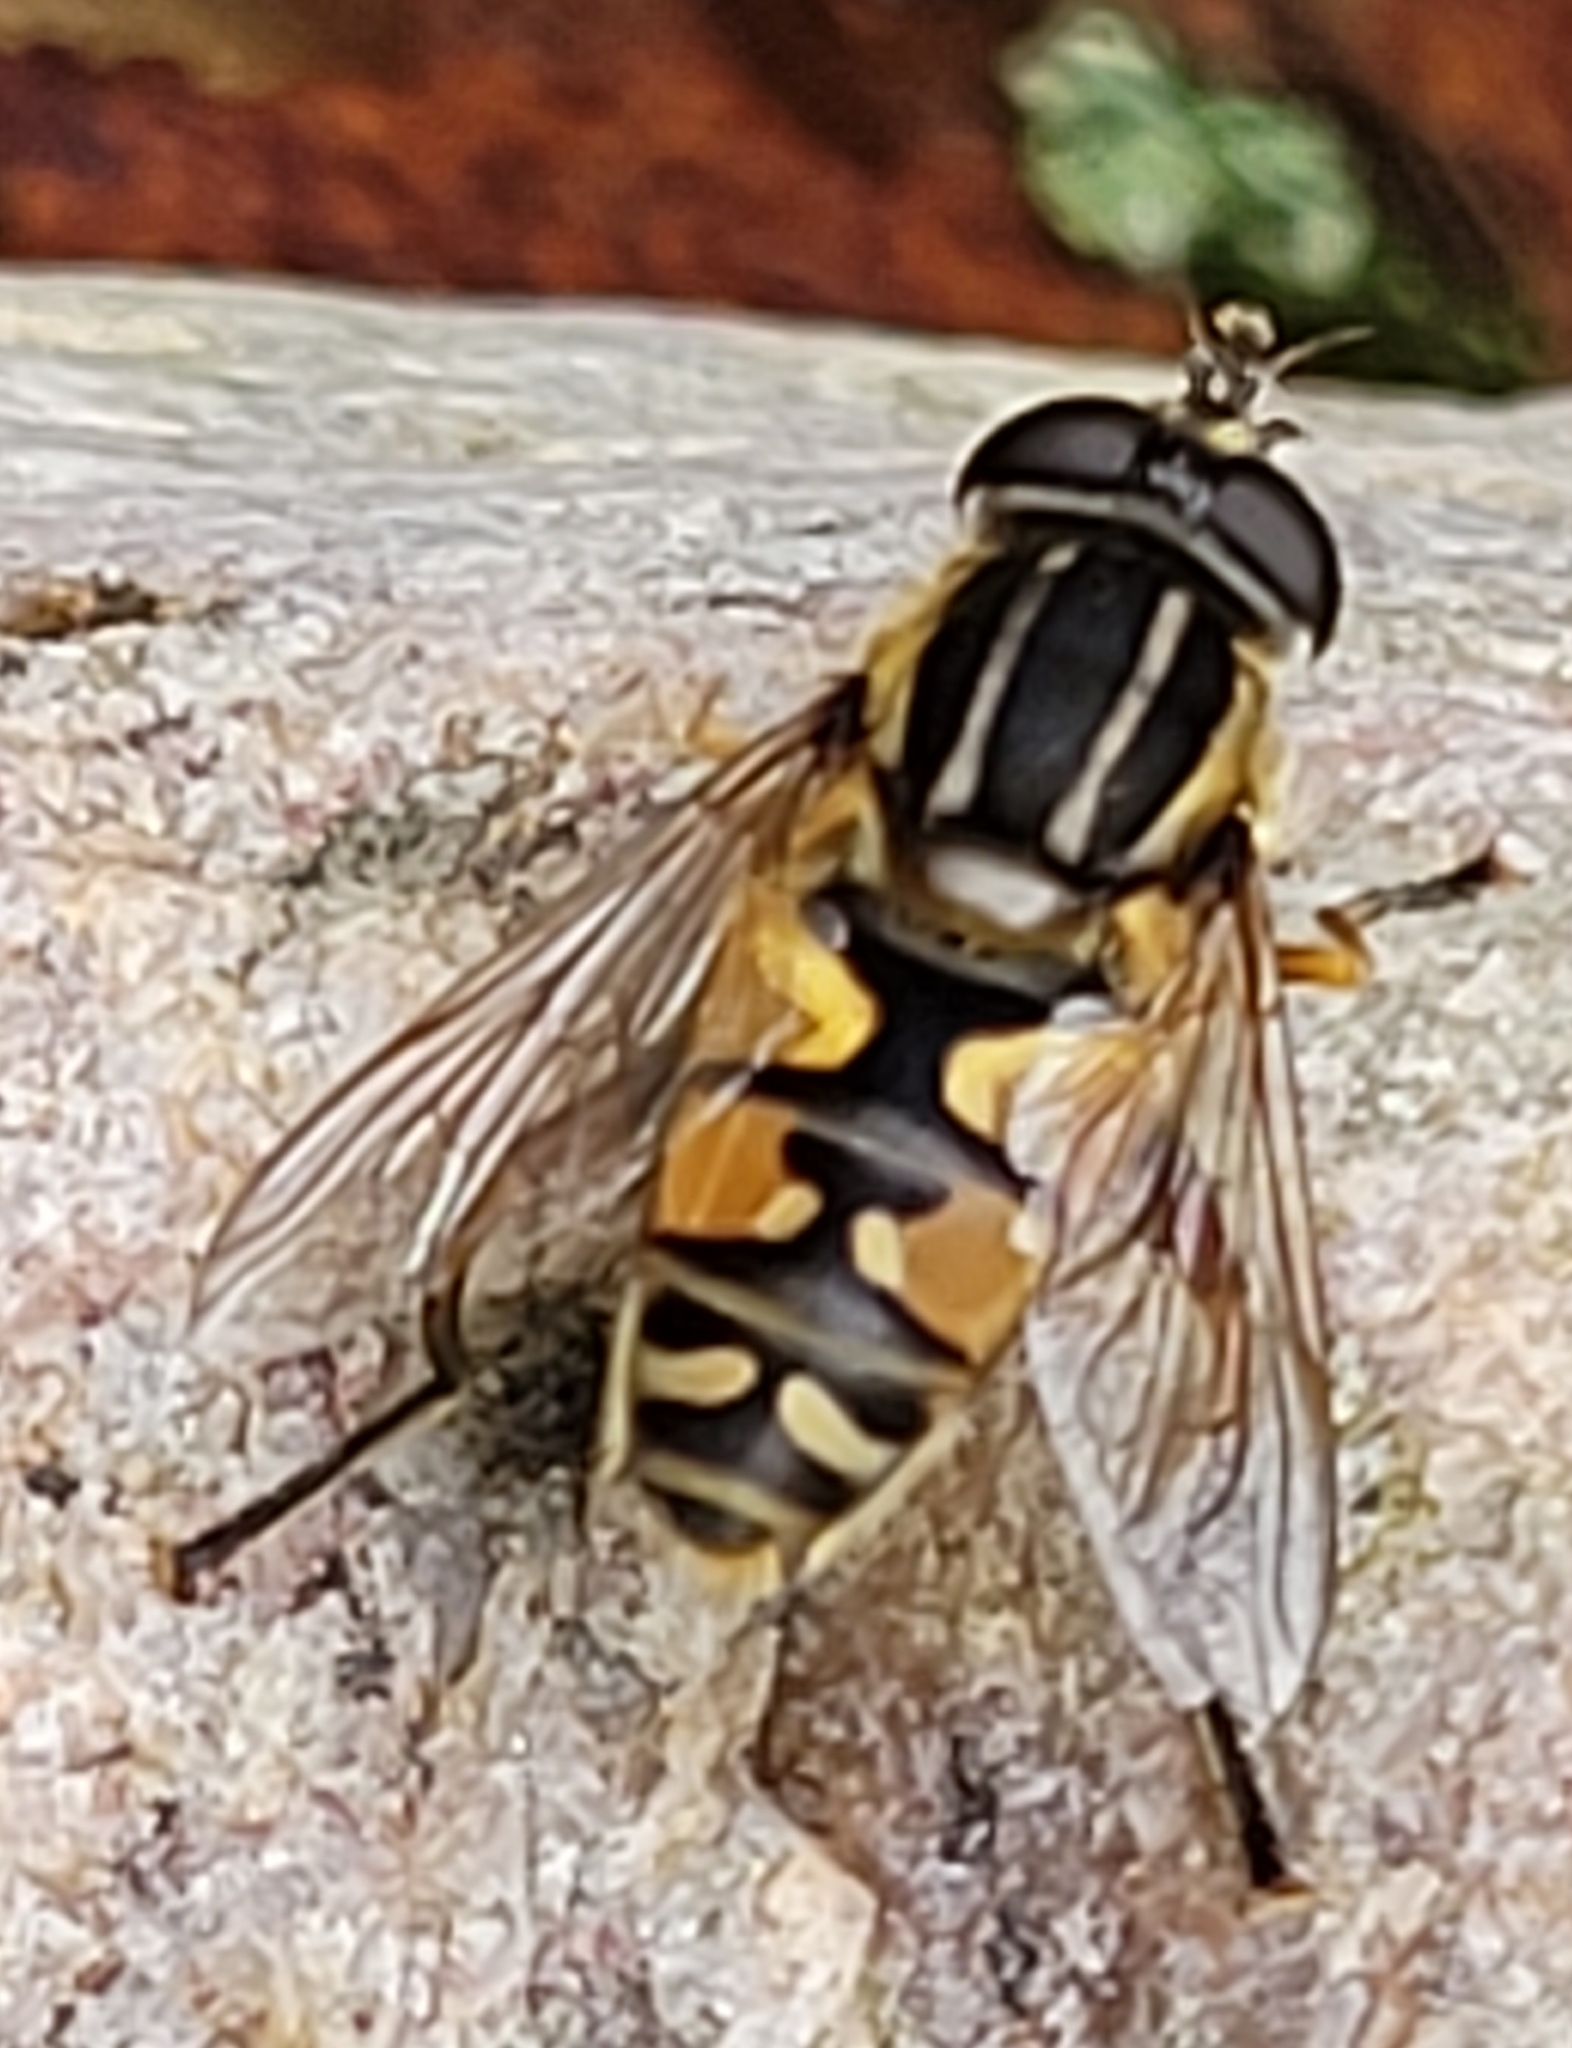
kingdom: Animalia
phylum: Arthropoda
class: Insecta
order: Diptera
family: Syrphidae
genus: Helophilus
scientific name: Helophilus pendulus
